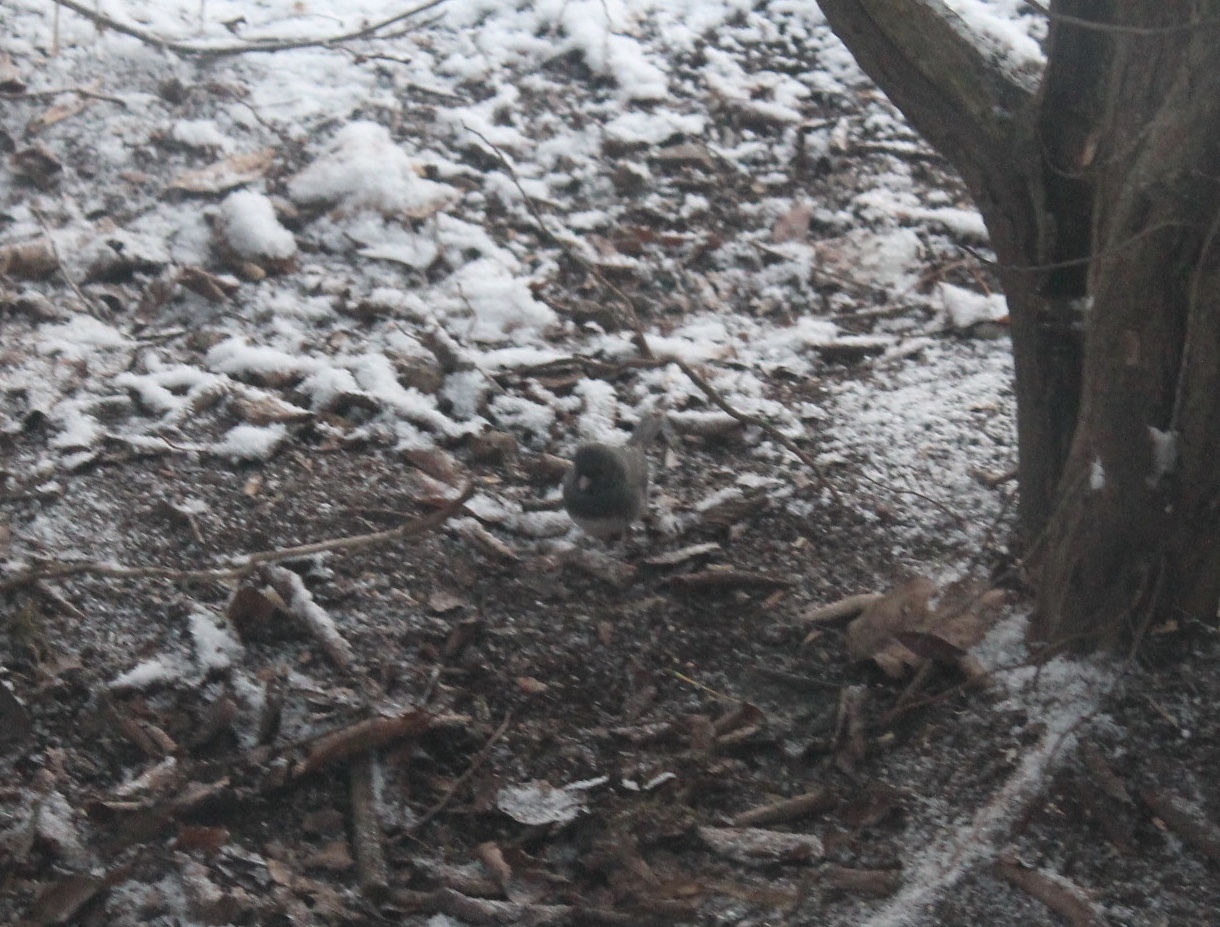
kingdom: Animalia
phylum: Chordata
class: Aves
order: Passeriformes
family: Passerellidae
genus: Junco
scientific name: Junco hyemalis
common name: Dark-eyed junco
